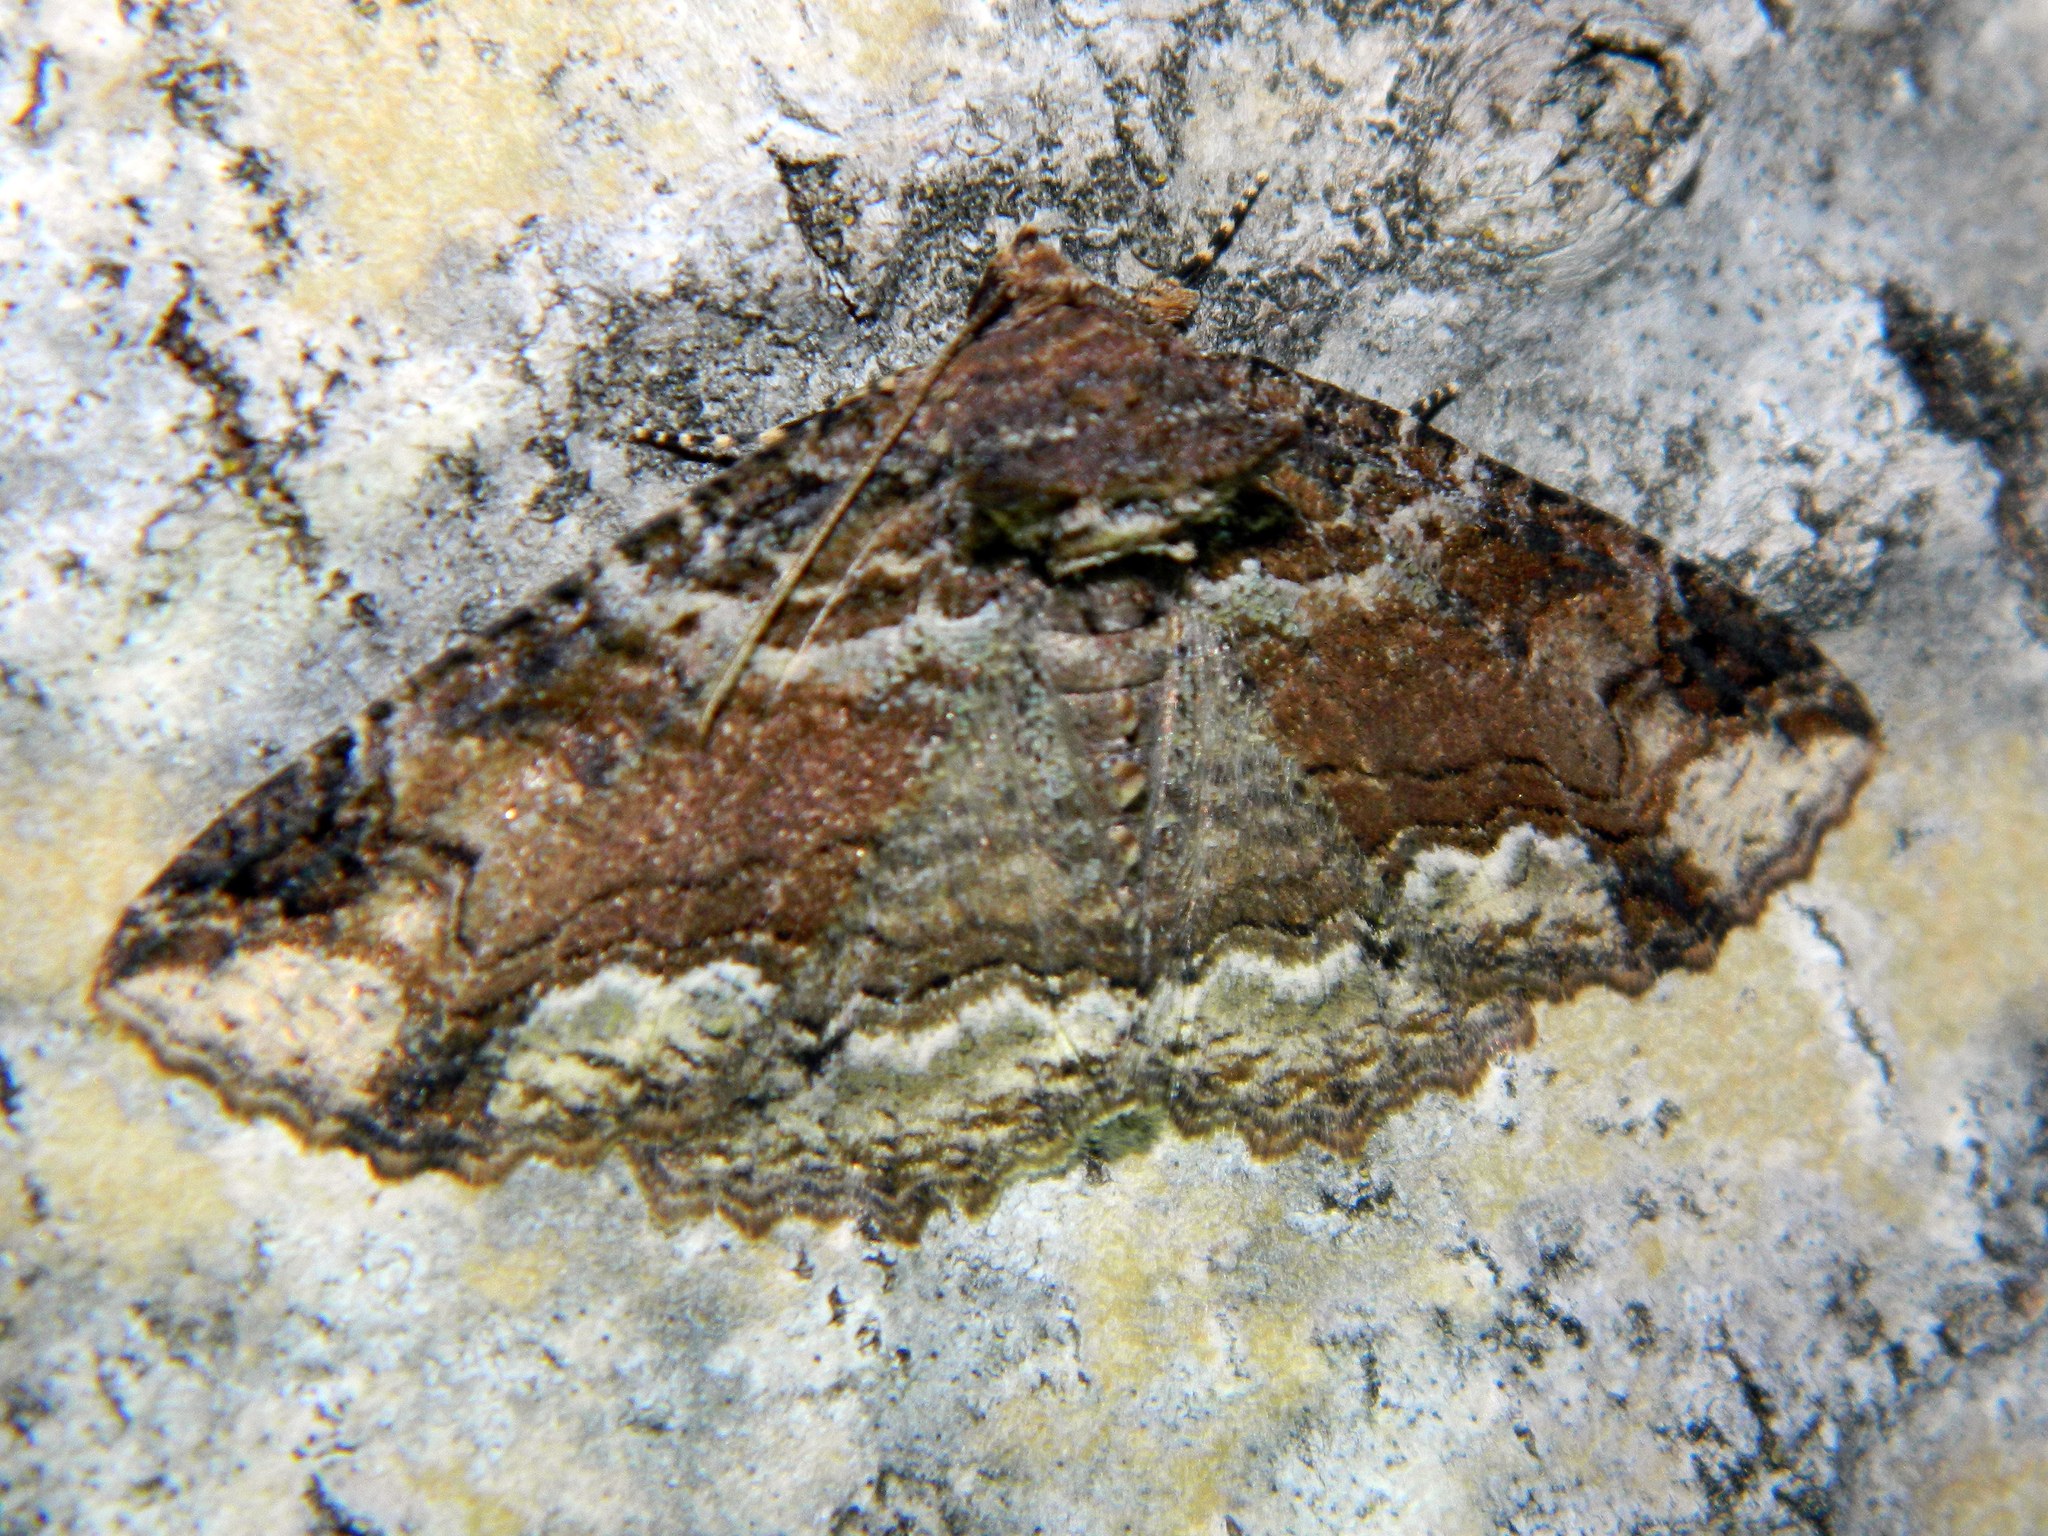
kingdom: Animalia
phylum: Arthropoda
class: Insecta
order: Lepidoptera
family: Erebidae
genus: Zale
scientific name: Zale minerea
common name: Colorful zale moth
